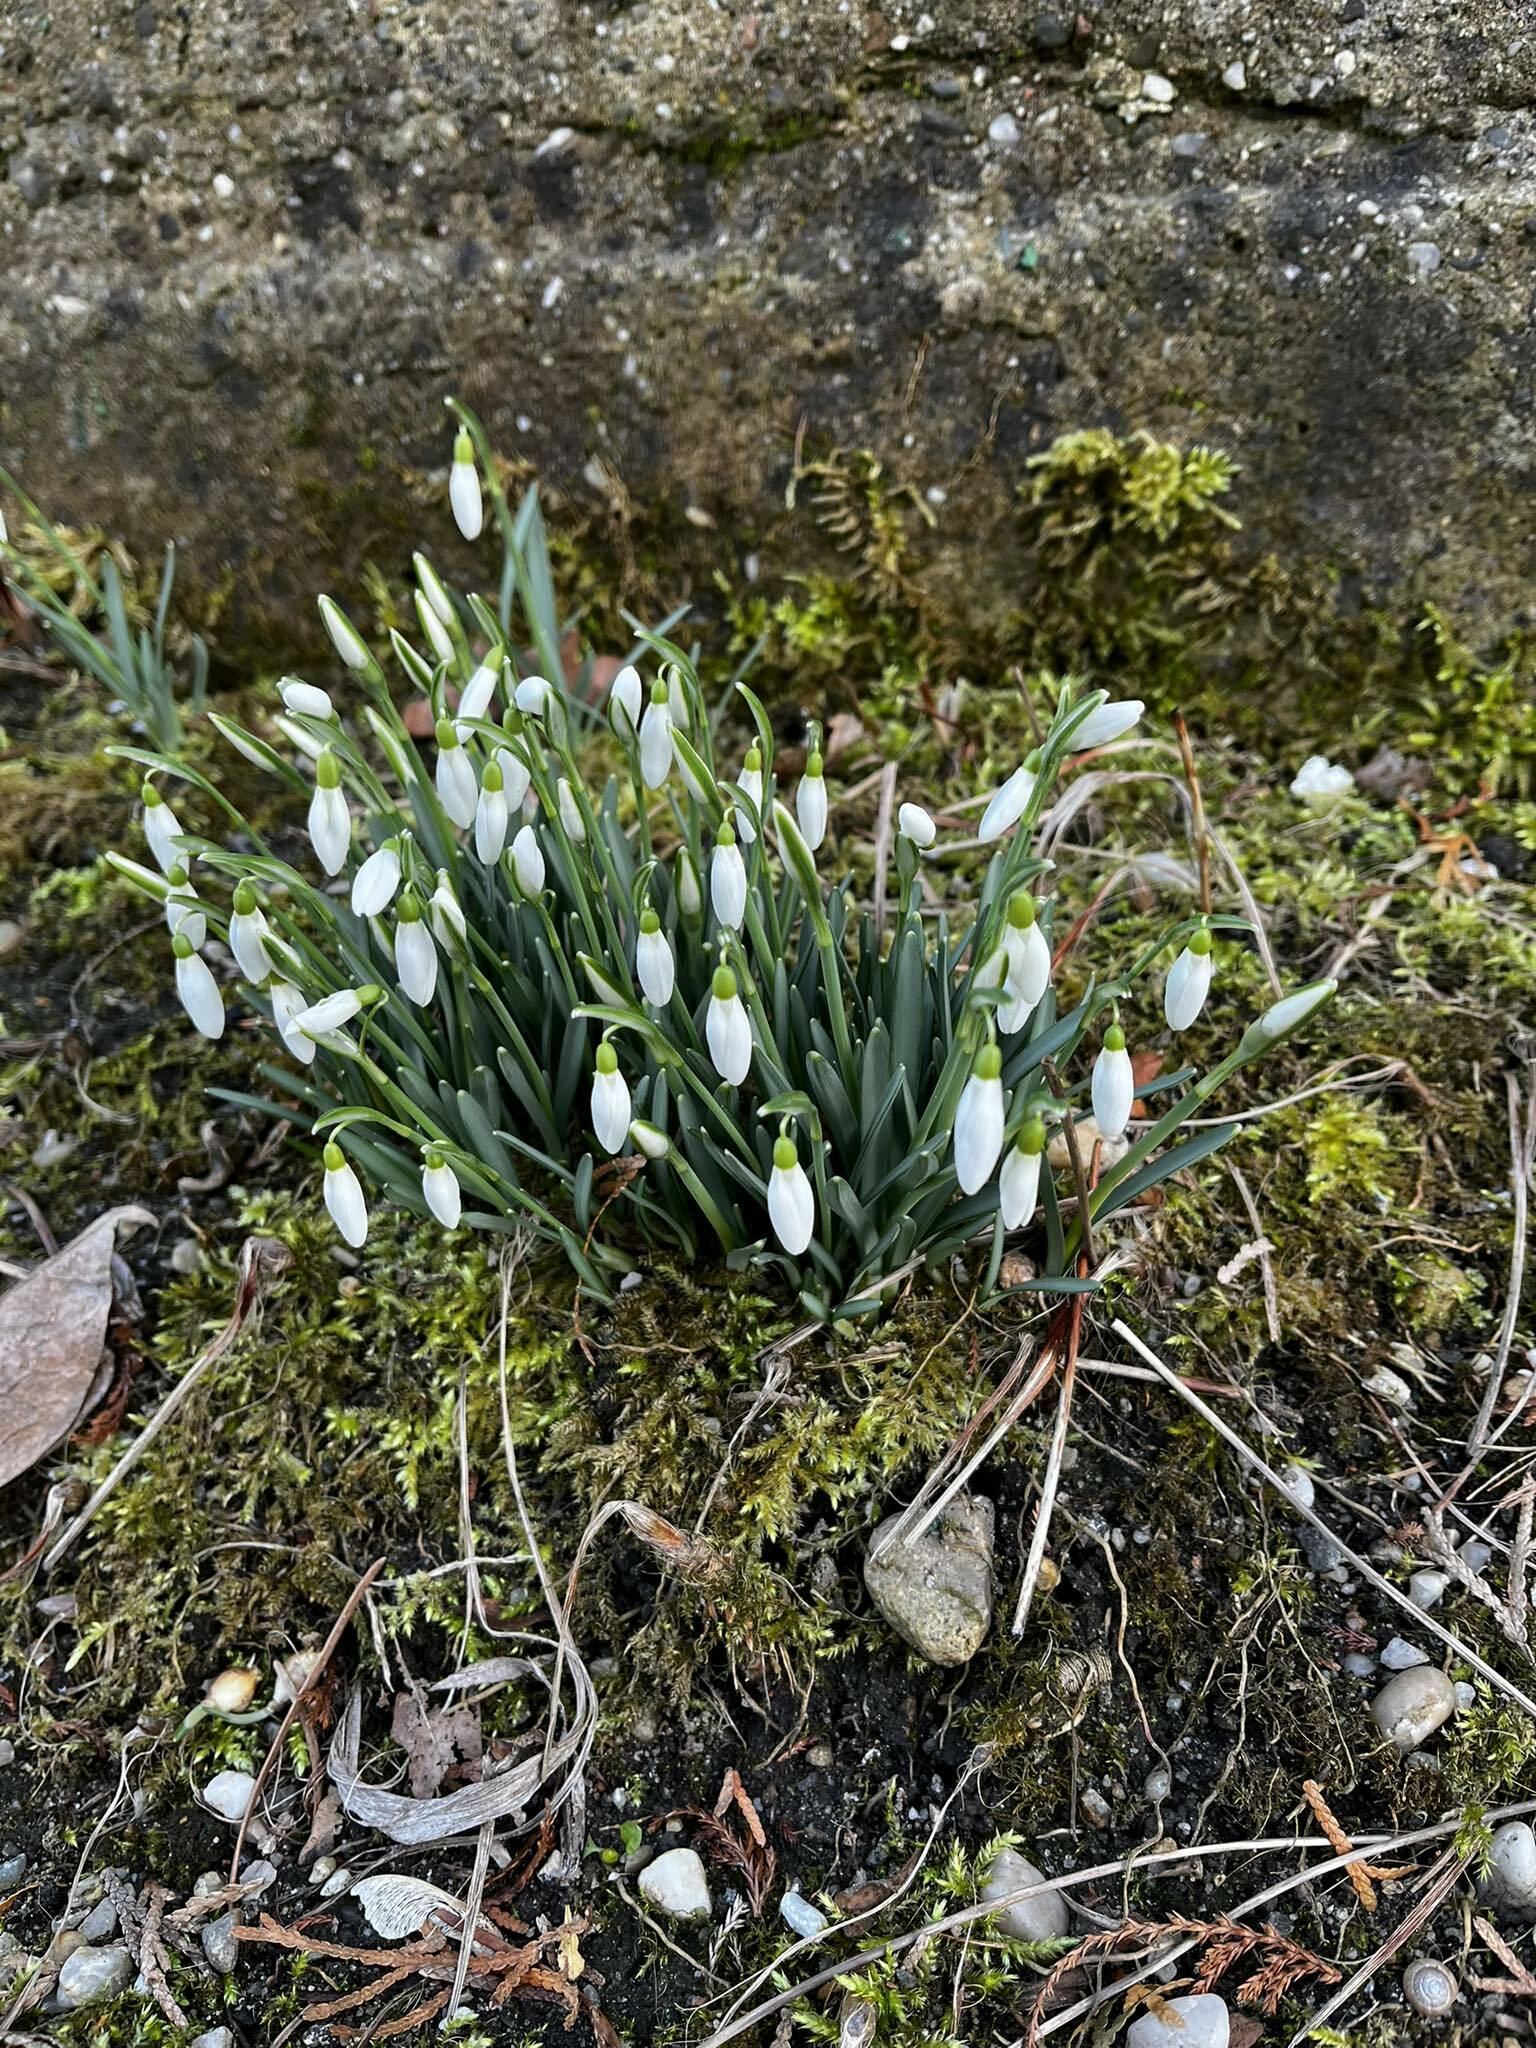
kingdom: Plantae
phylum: Tracheophyta
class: Liliopsida
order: Asparagales
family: Amaryllidaceae
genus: Galanthus
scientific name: Galanthus nivalis
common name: Snowdrop
